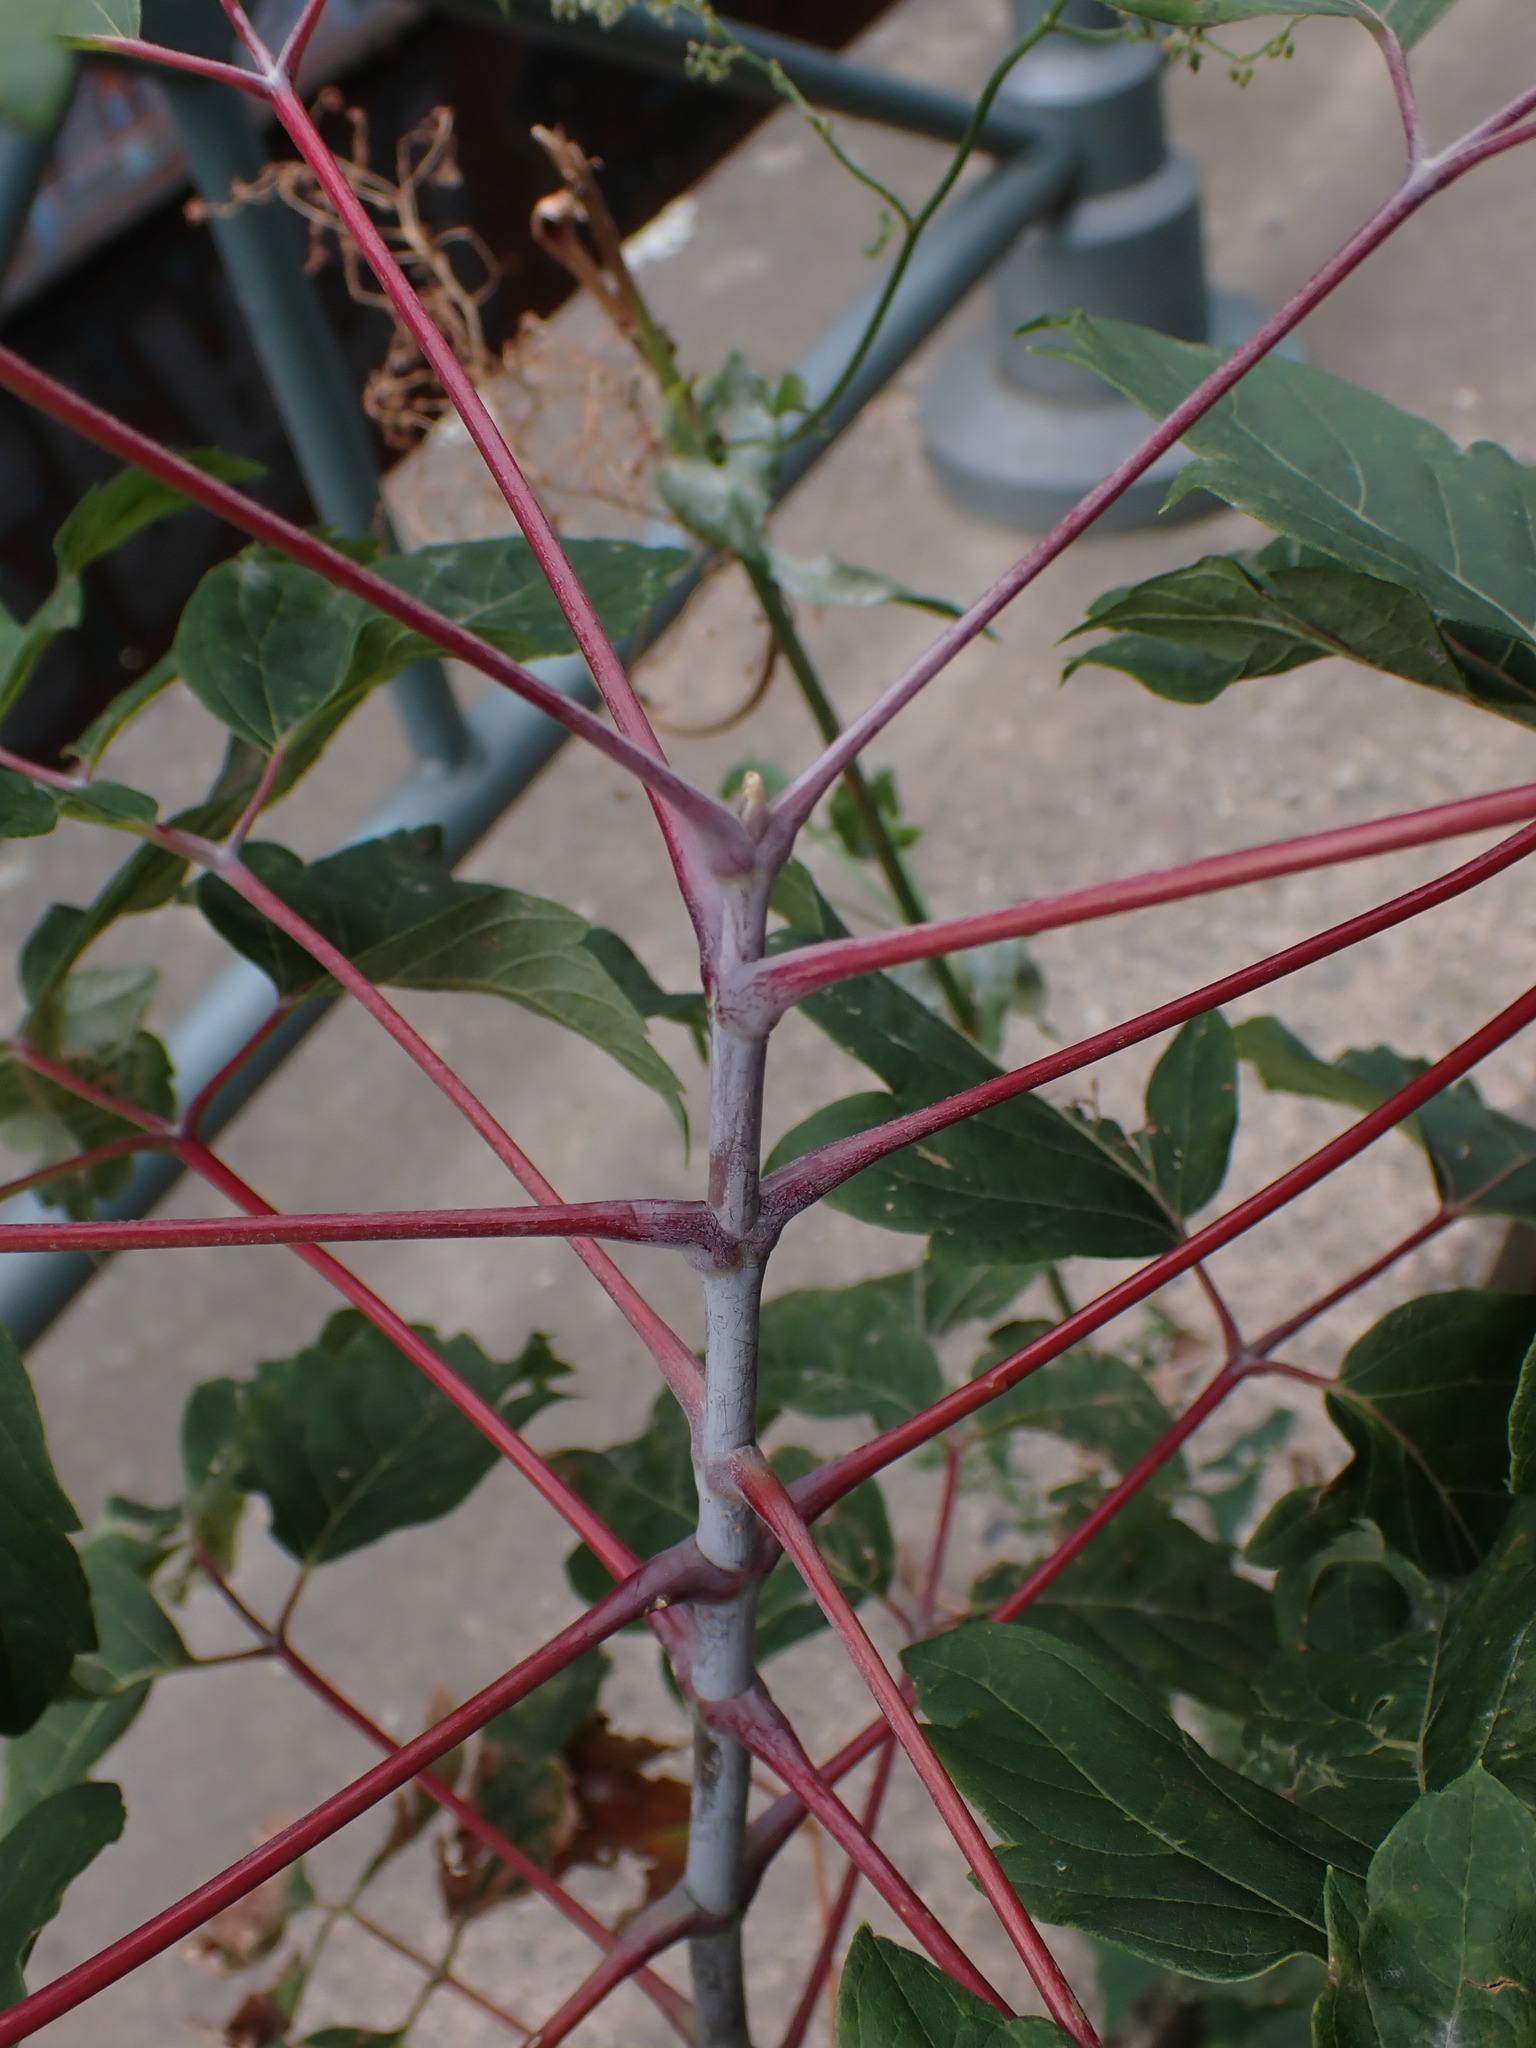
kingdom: Plantae
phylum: Tracheophyta
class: Magnoliopsida
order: Sapindales
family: Sapindaceae
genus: Acer
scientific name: Acer negundo
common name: Ashleaf maple
